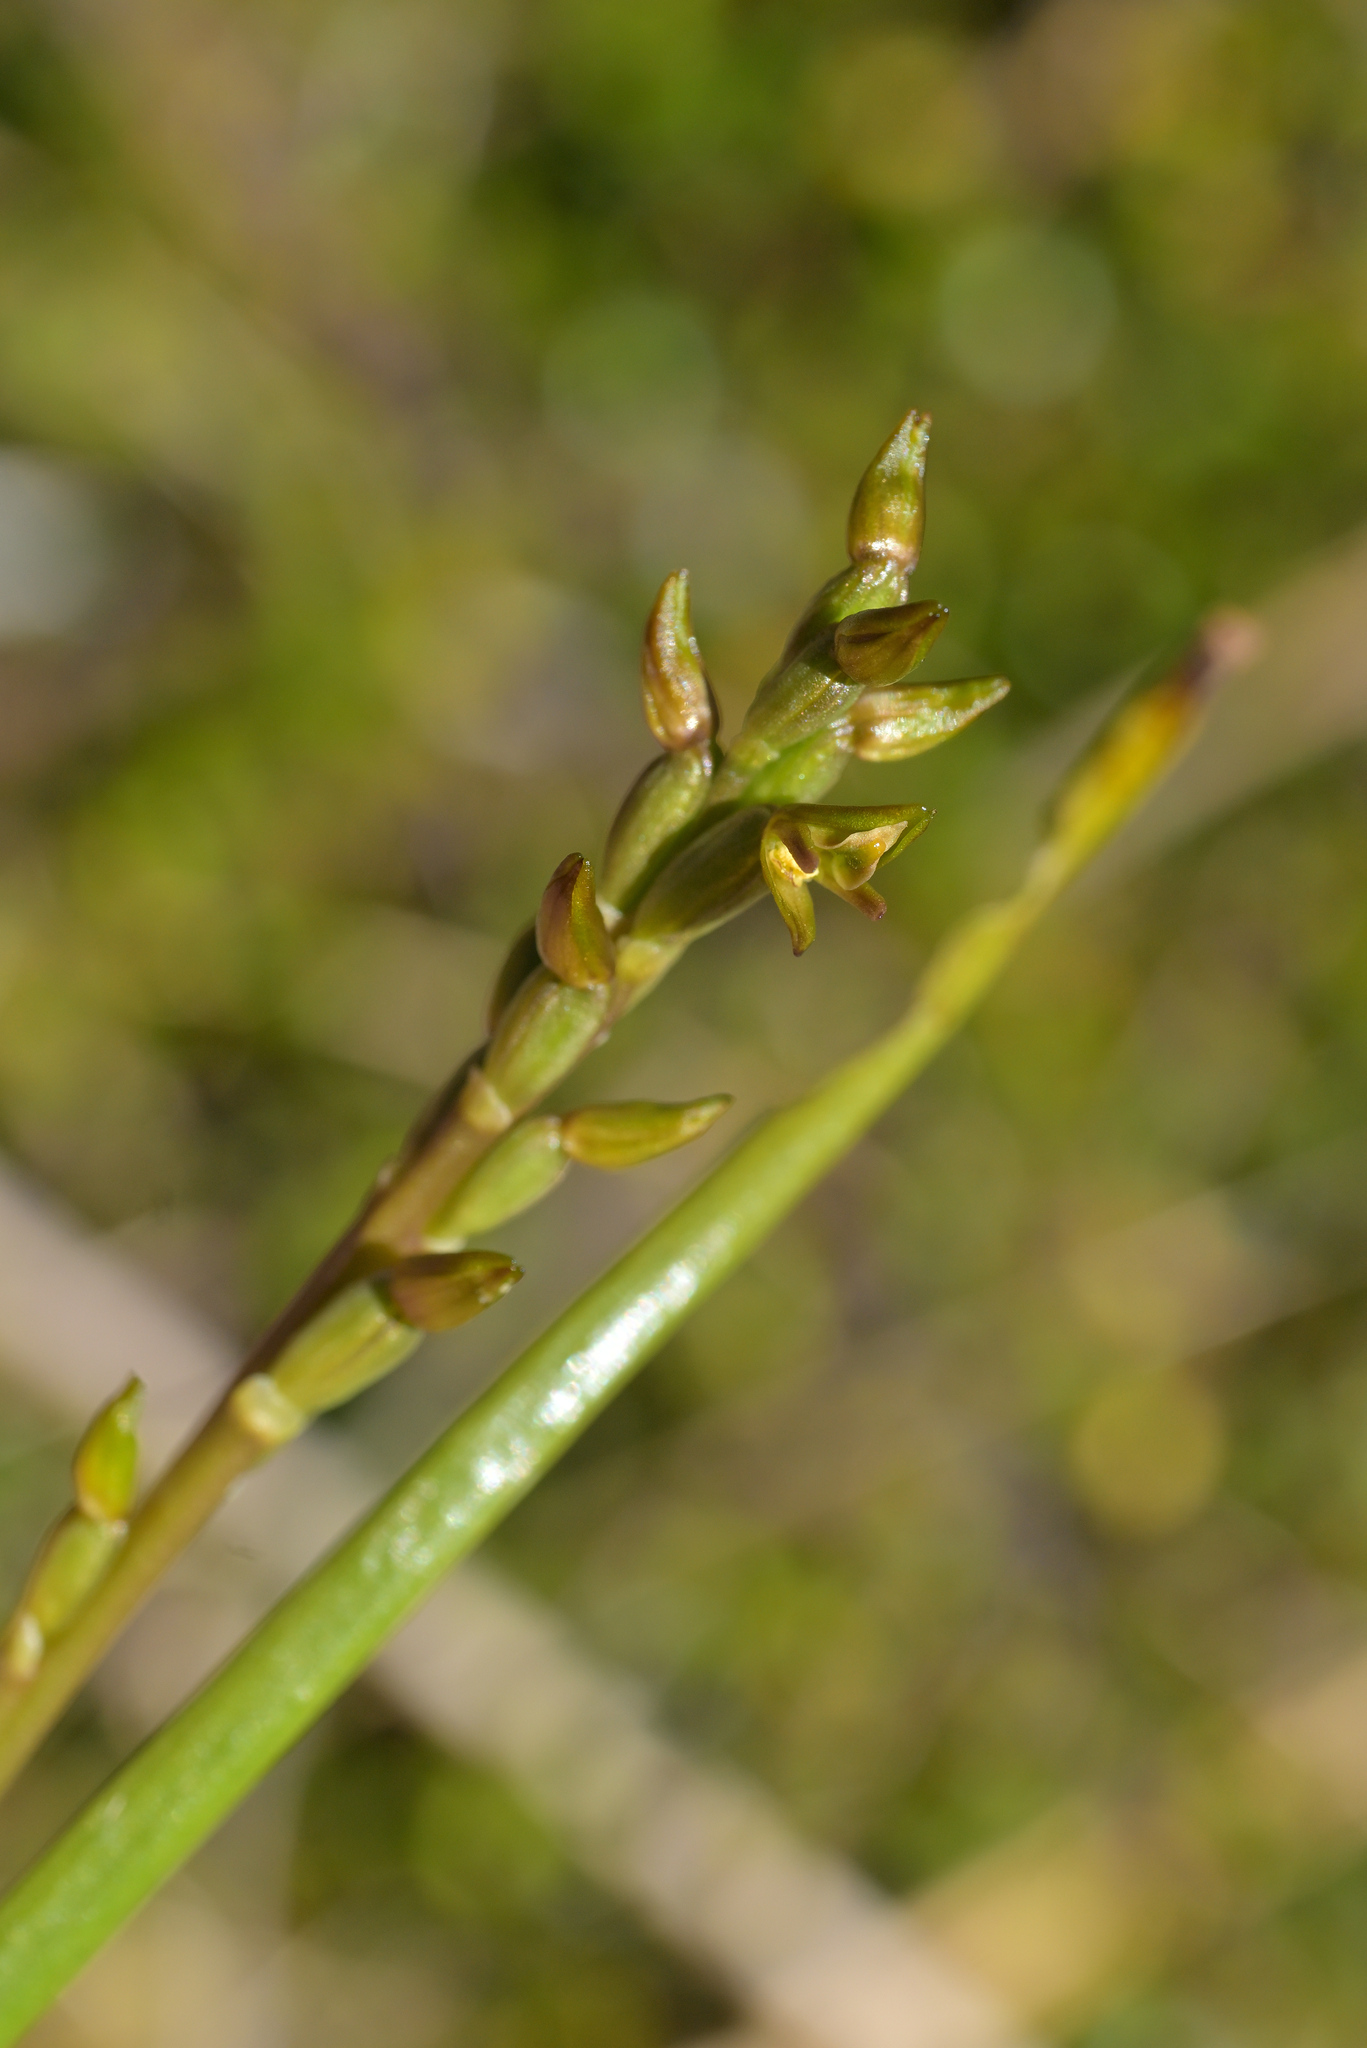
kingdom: Plantae
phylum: Tracheophyta
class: Liliopsida
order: Asparagales
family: Orchidaceae
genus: Prasophyllum
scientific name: Prasophyllum colensoi
